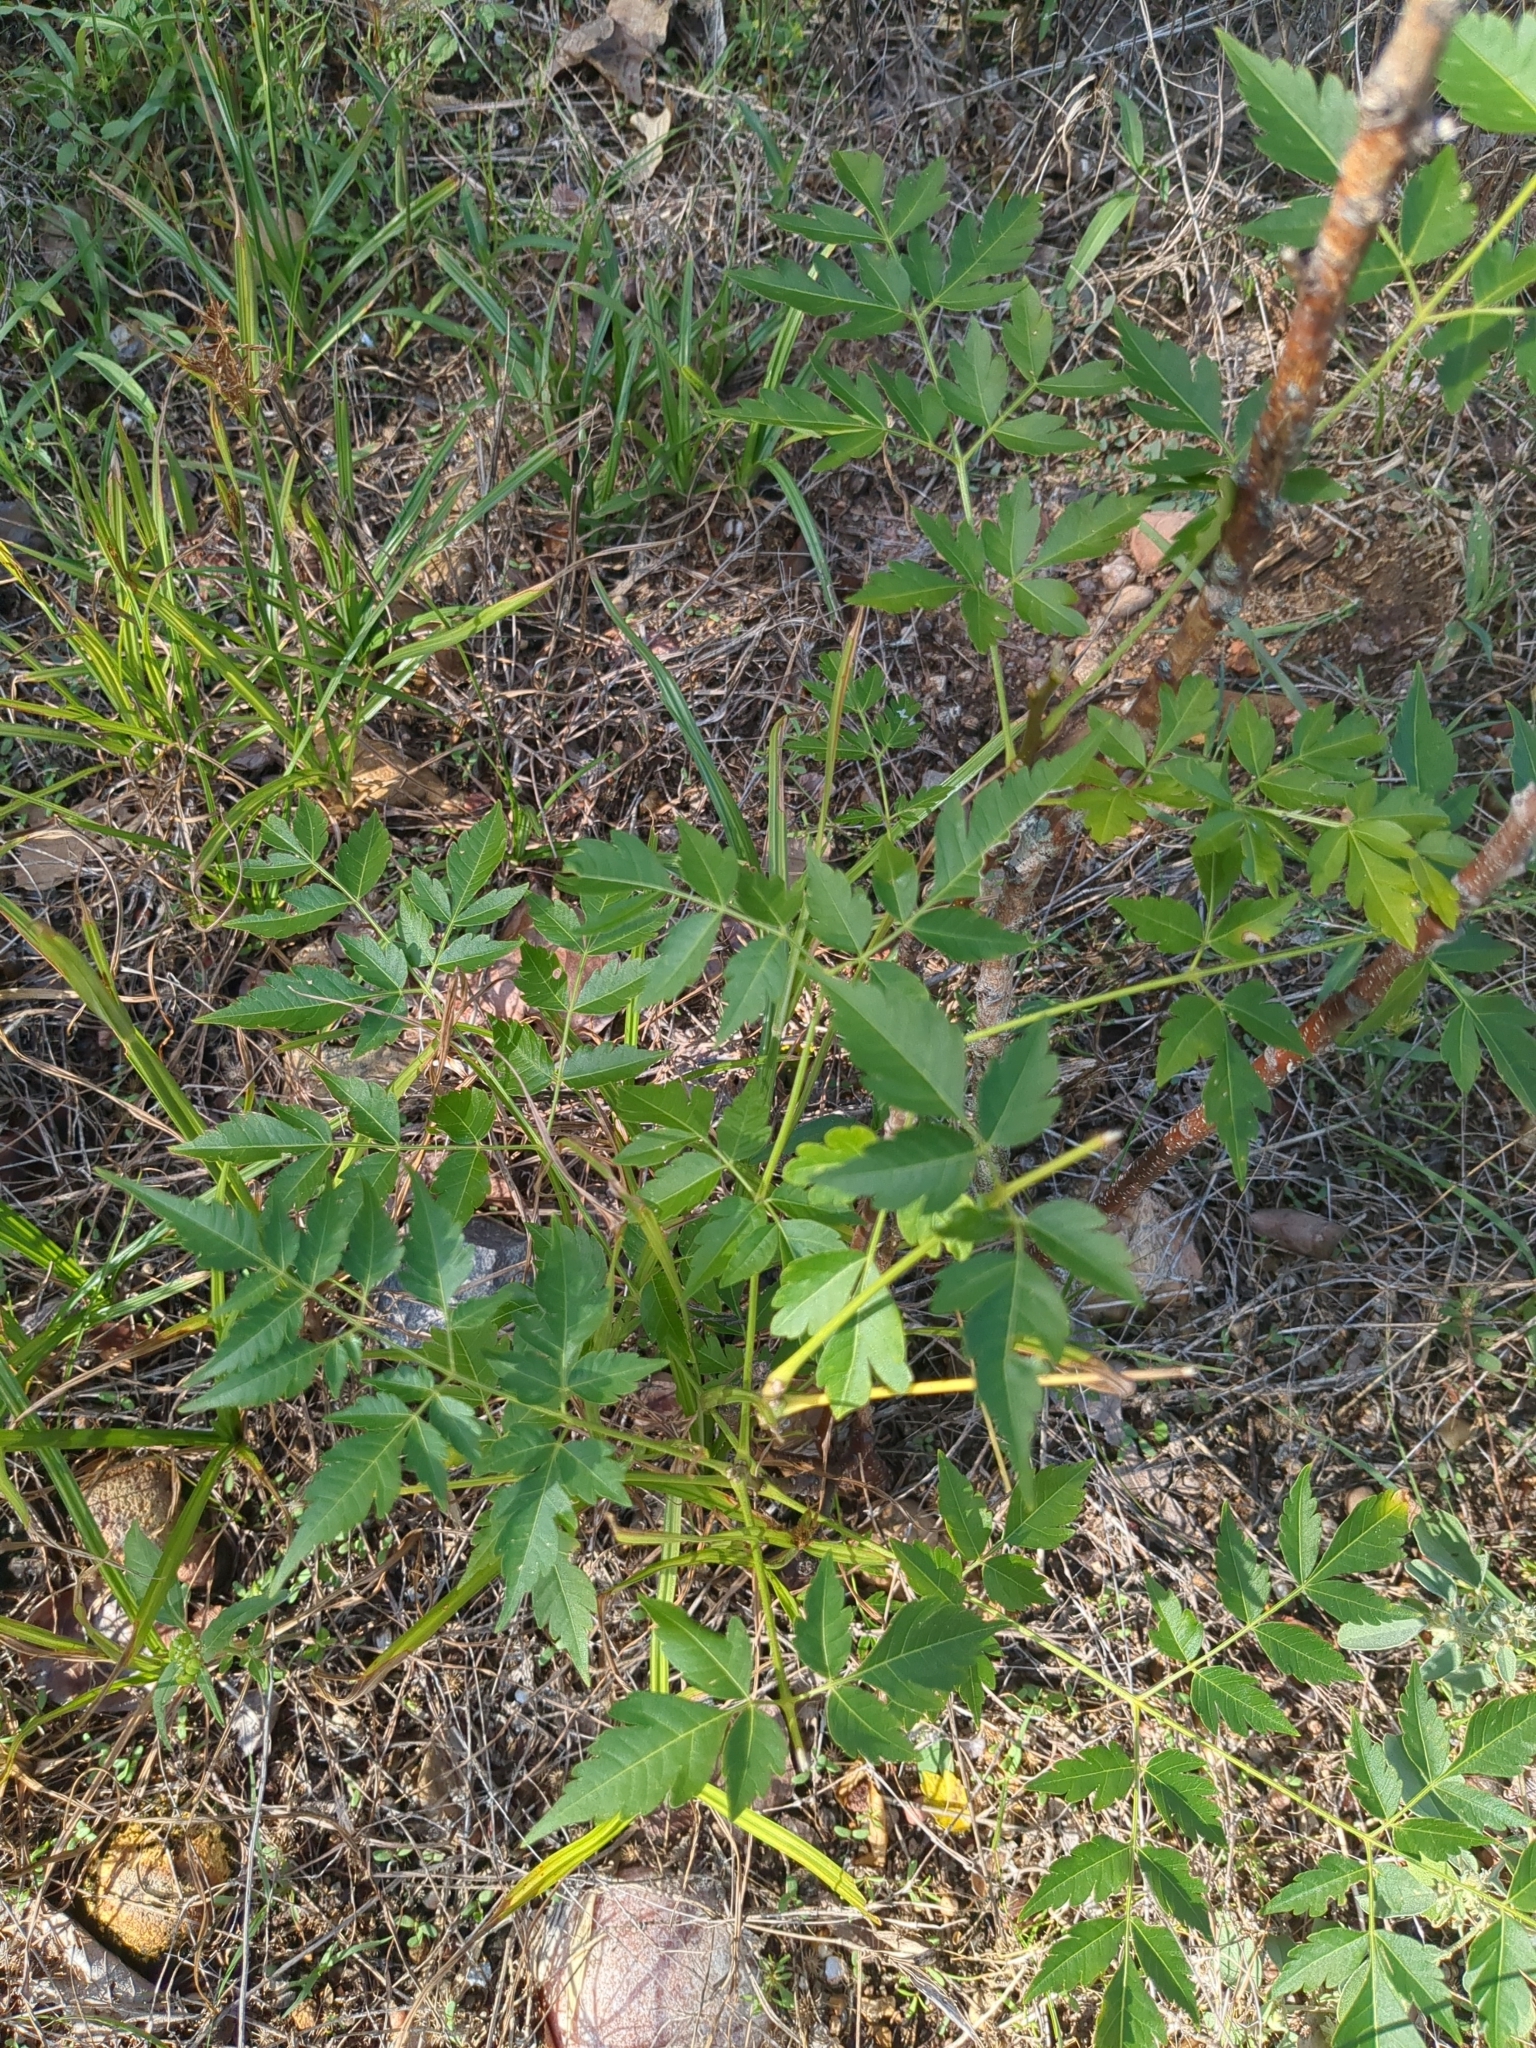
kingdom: Plantae
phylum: Tracheophyta
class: Magnoliopsida
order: Sapindales
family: Meliaceae
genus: Melia
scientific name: Melia azedarach
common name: Chinaberrytree
